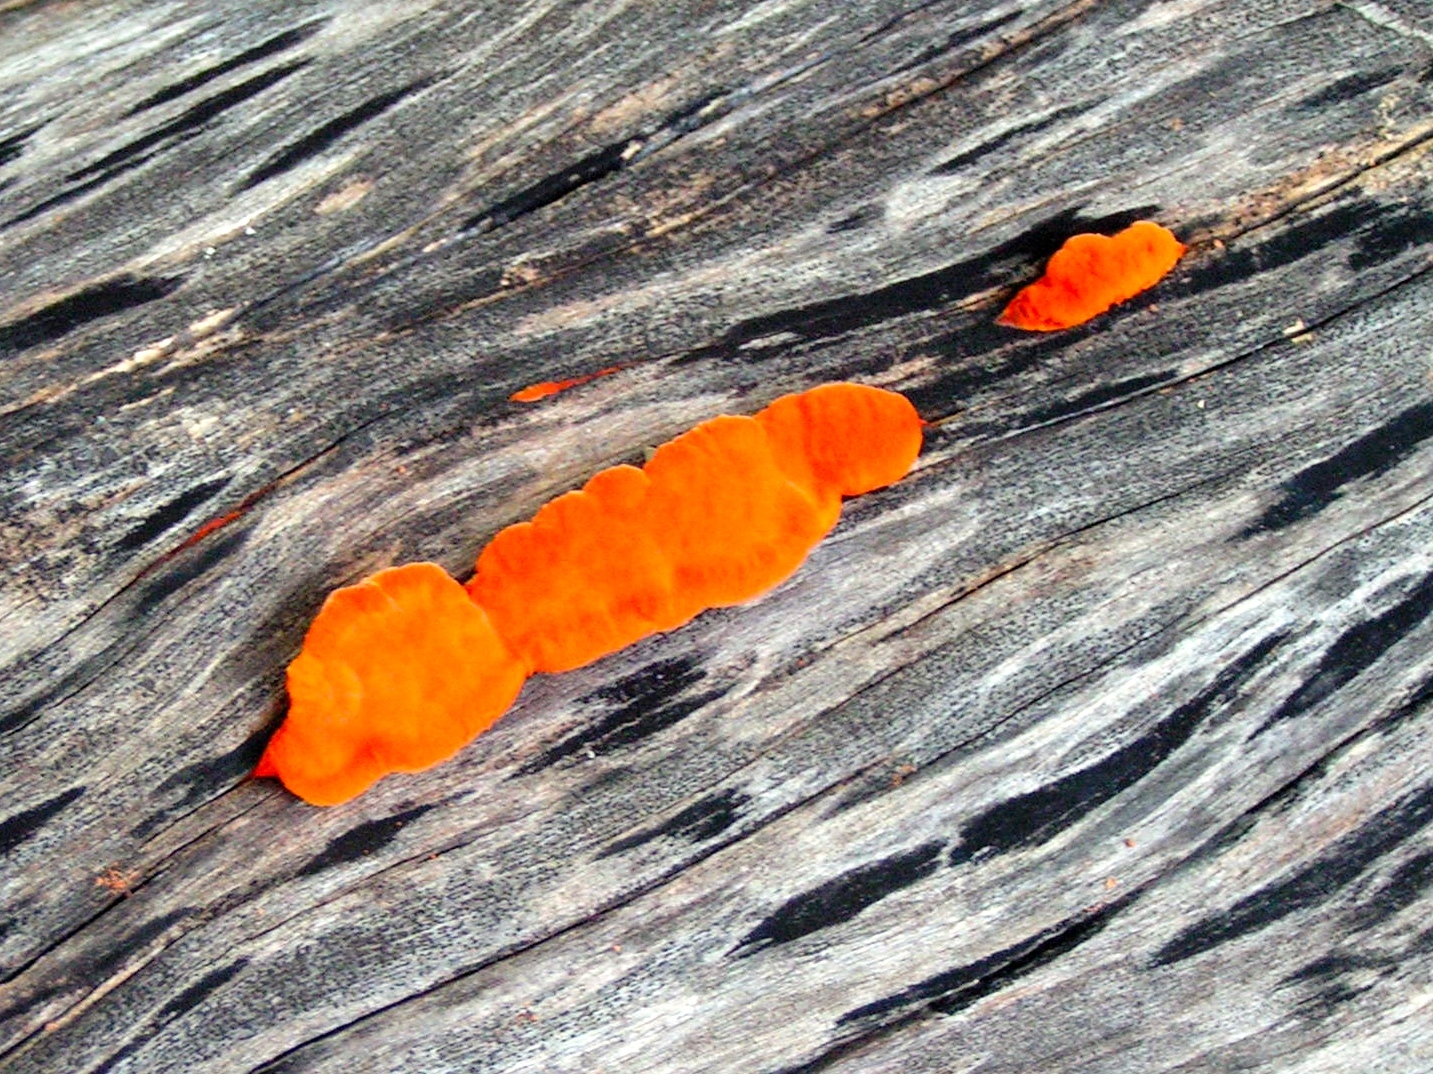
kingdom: Fungi
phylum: Basidiomycota
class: Agaricomycetes
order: Polyporales
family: Polyporaceae
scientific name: Polyporaceae
